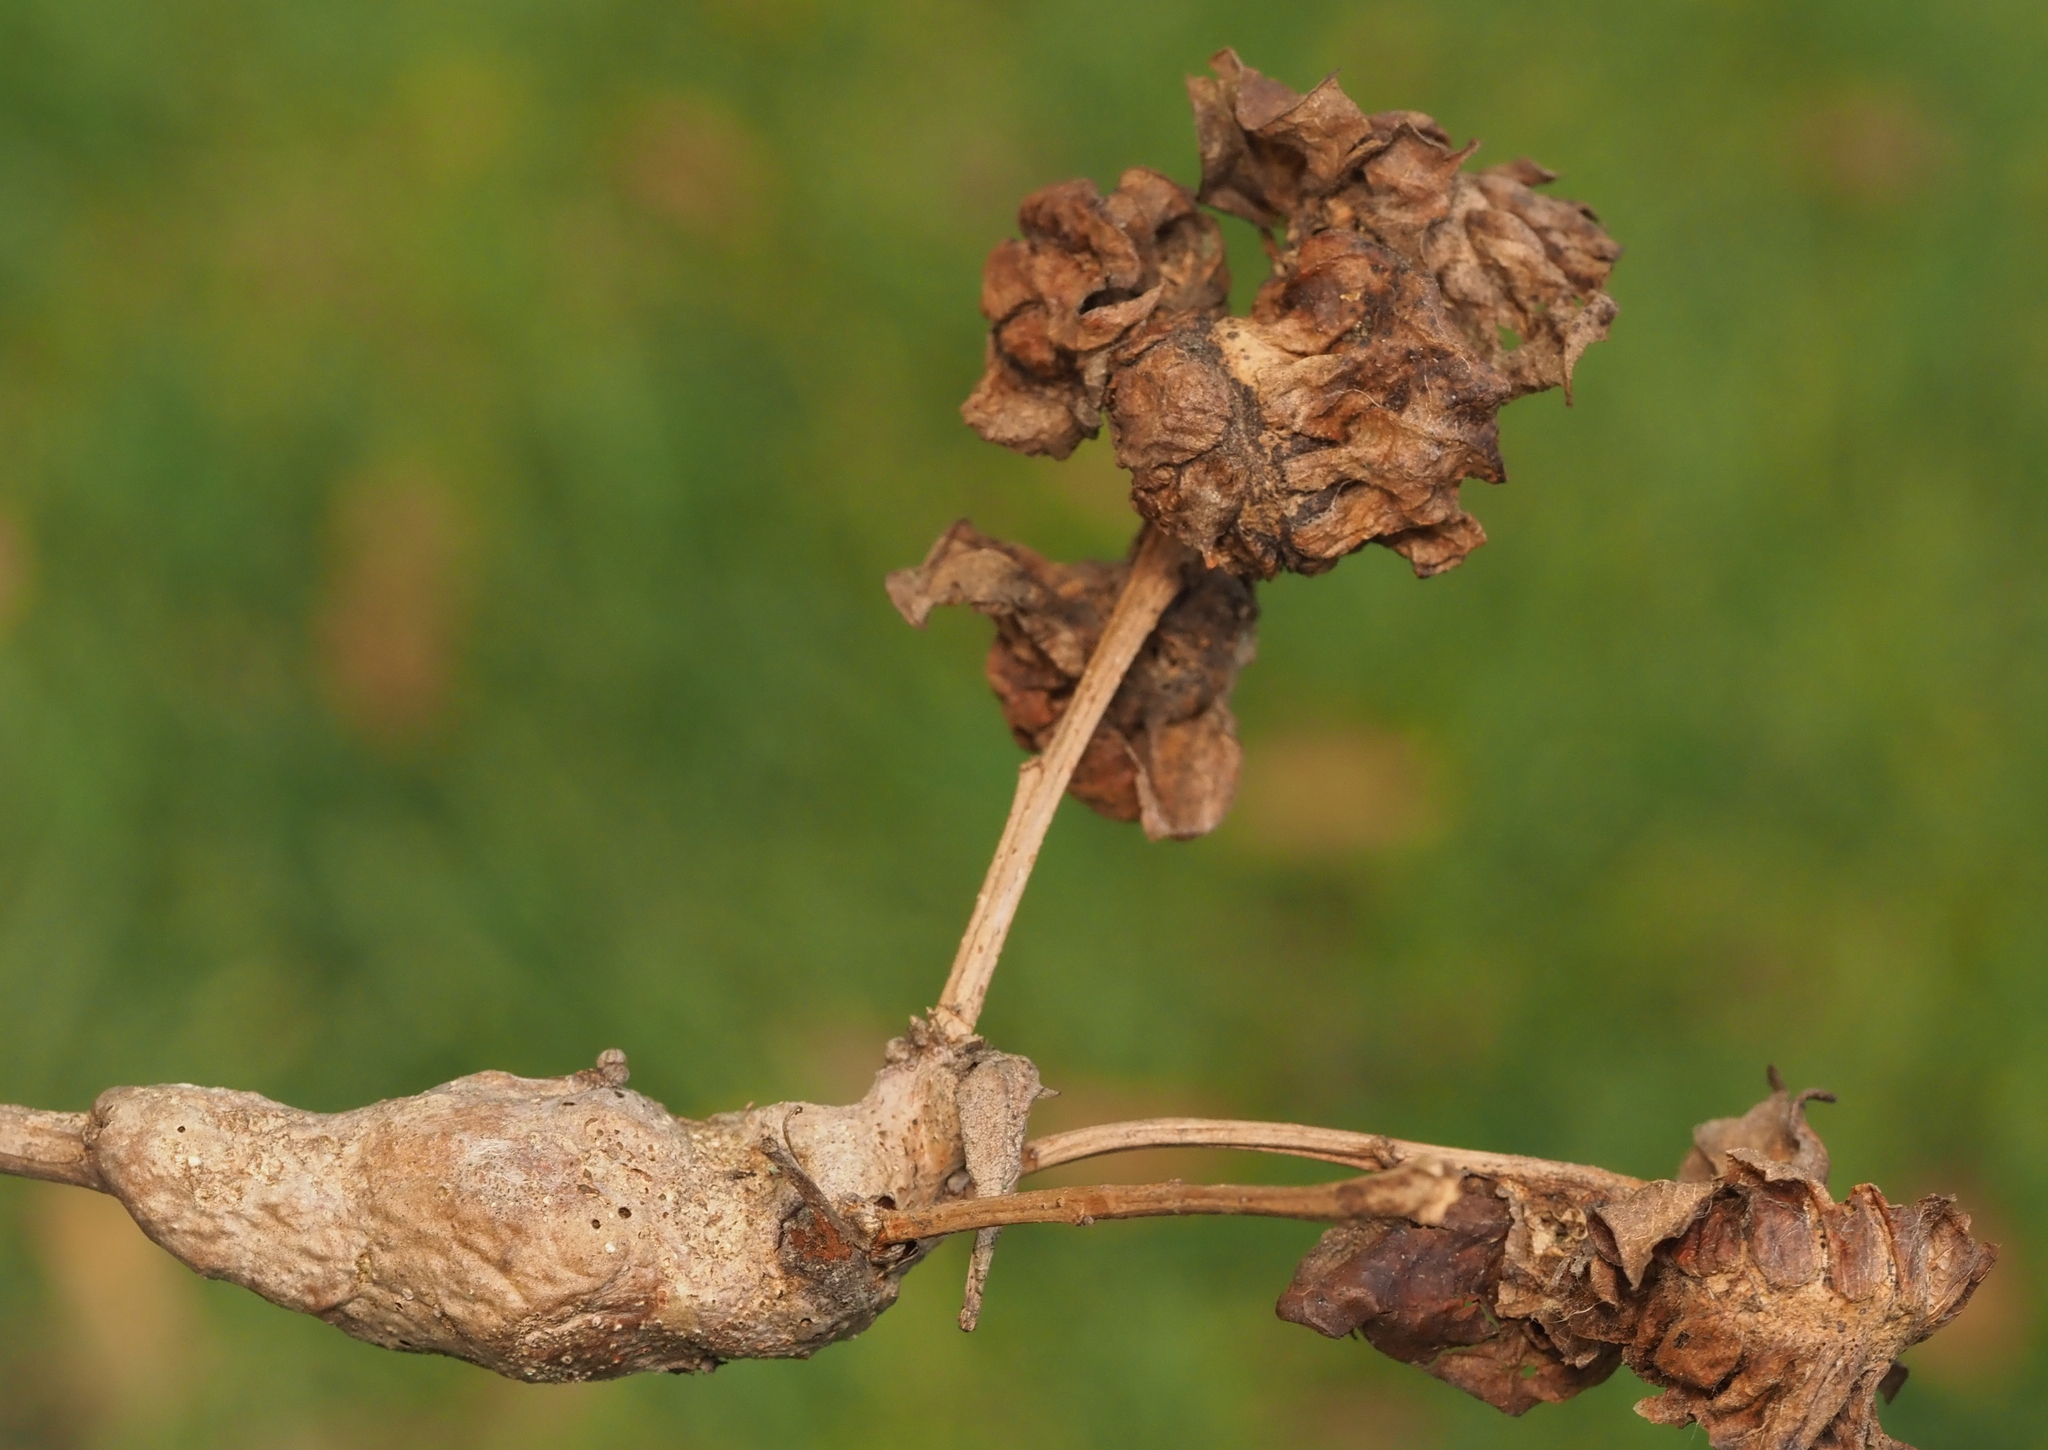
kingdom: Animalia
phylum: Arthropoda
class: Insecta
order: Hymenoptera
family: Cynipidae
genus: Neuroterus
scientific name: Neuroterus quercusbaccarum
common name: Common spangle gall
